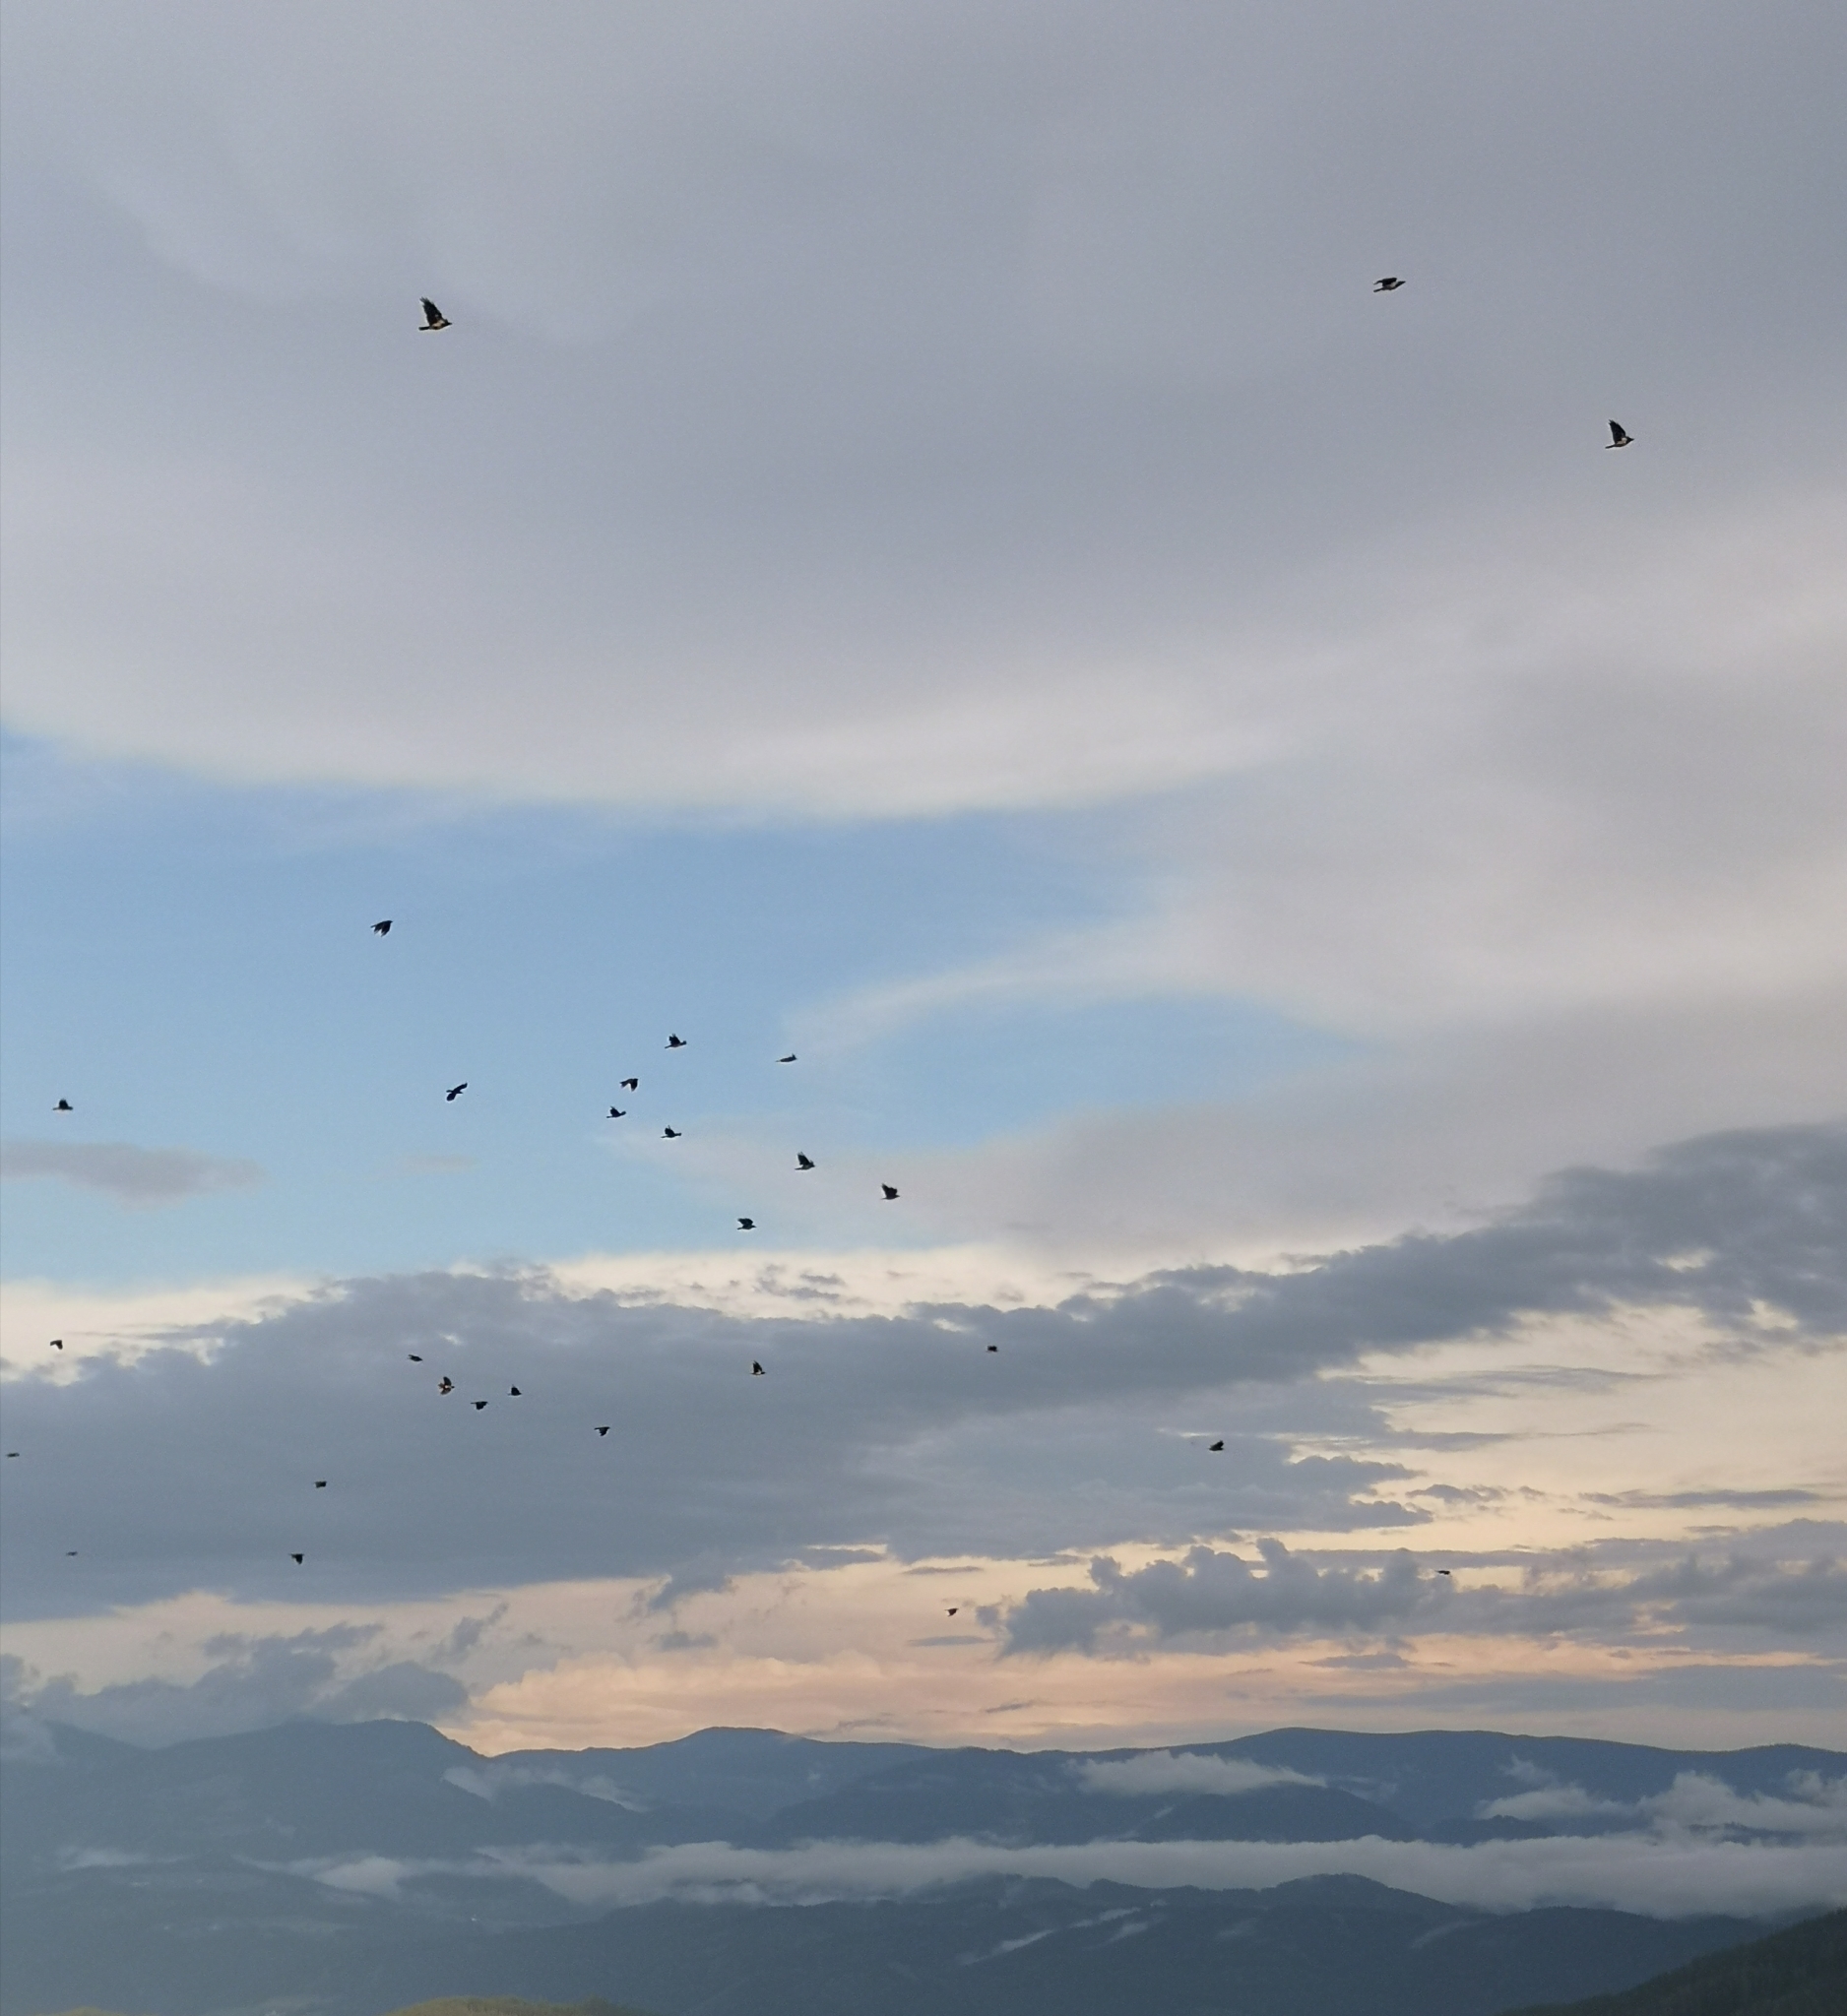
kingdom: Animalia
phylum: Chordata
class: Aves
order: Passeriformes
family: Corvidae
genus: Corvus
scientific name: Corvus
